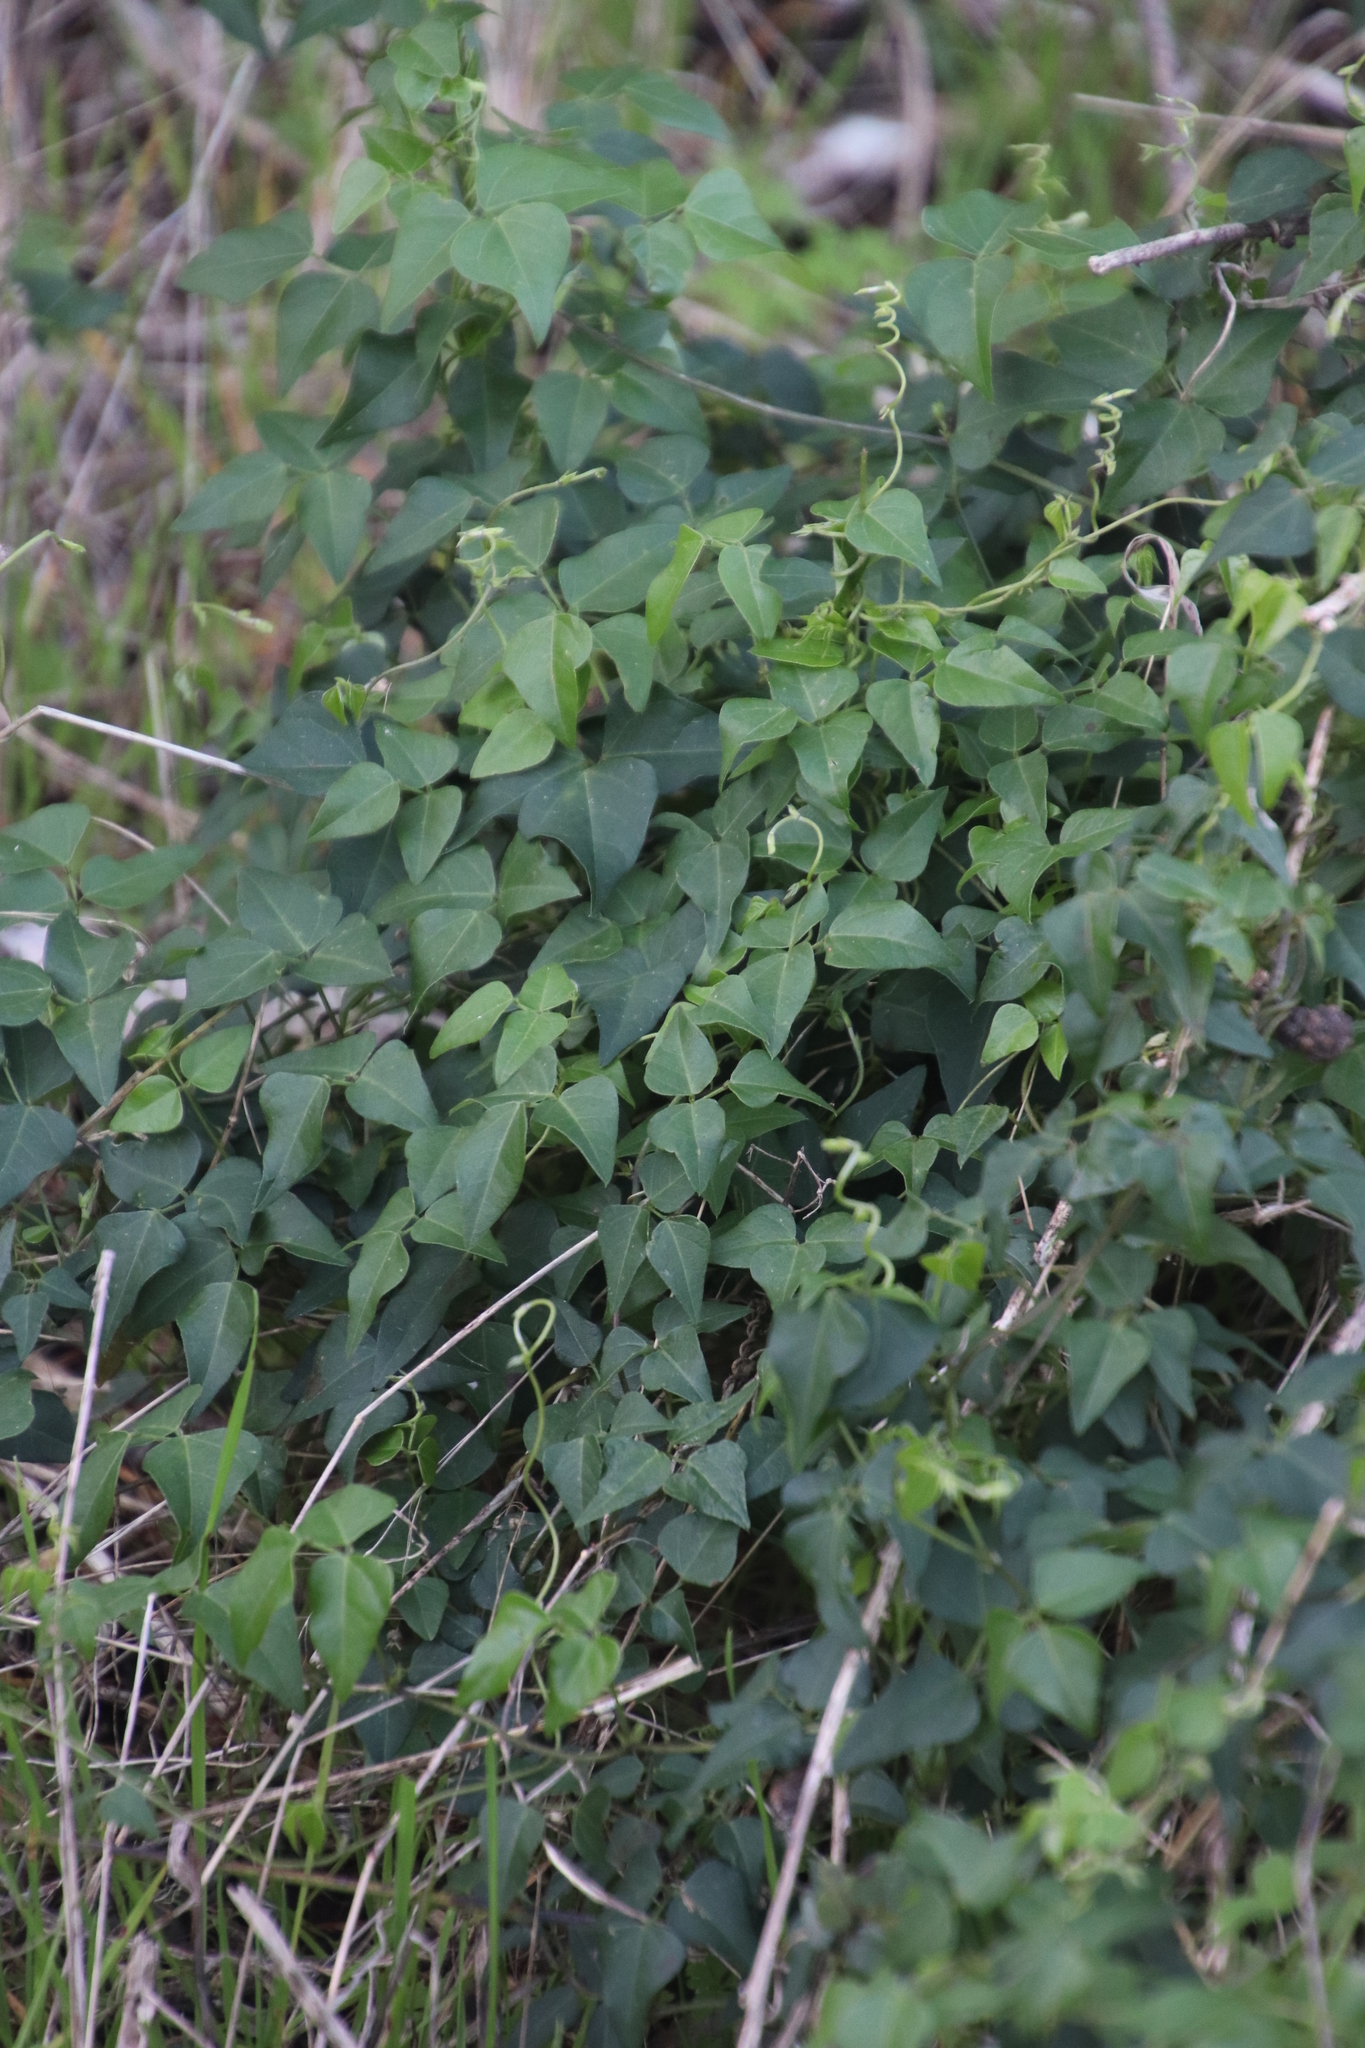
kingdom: Plantae
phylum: Tracheophyta
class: Magnoliopsida
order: Fabales
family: Fabaceae
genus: Dipogon
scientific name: Dipogon lignosus
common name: Okie bean
